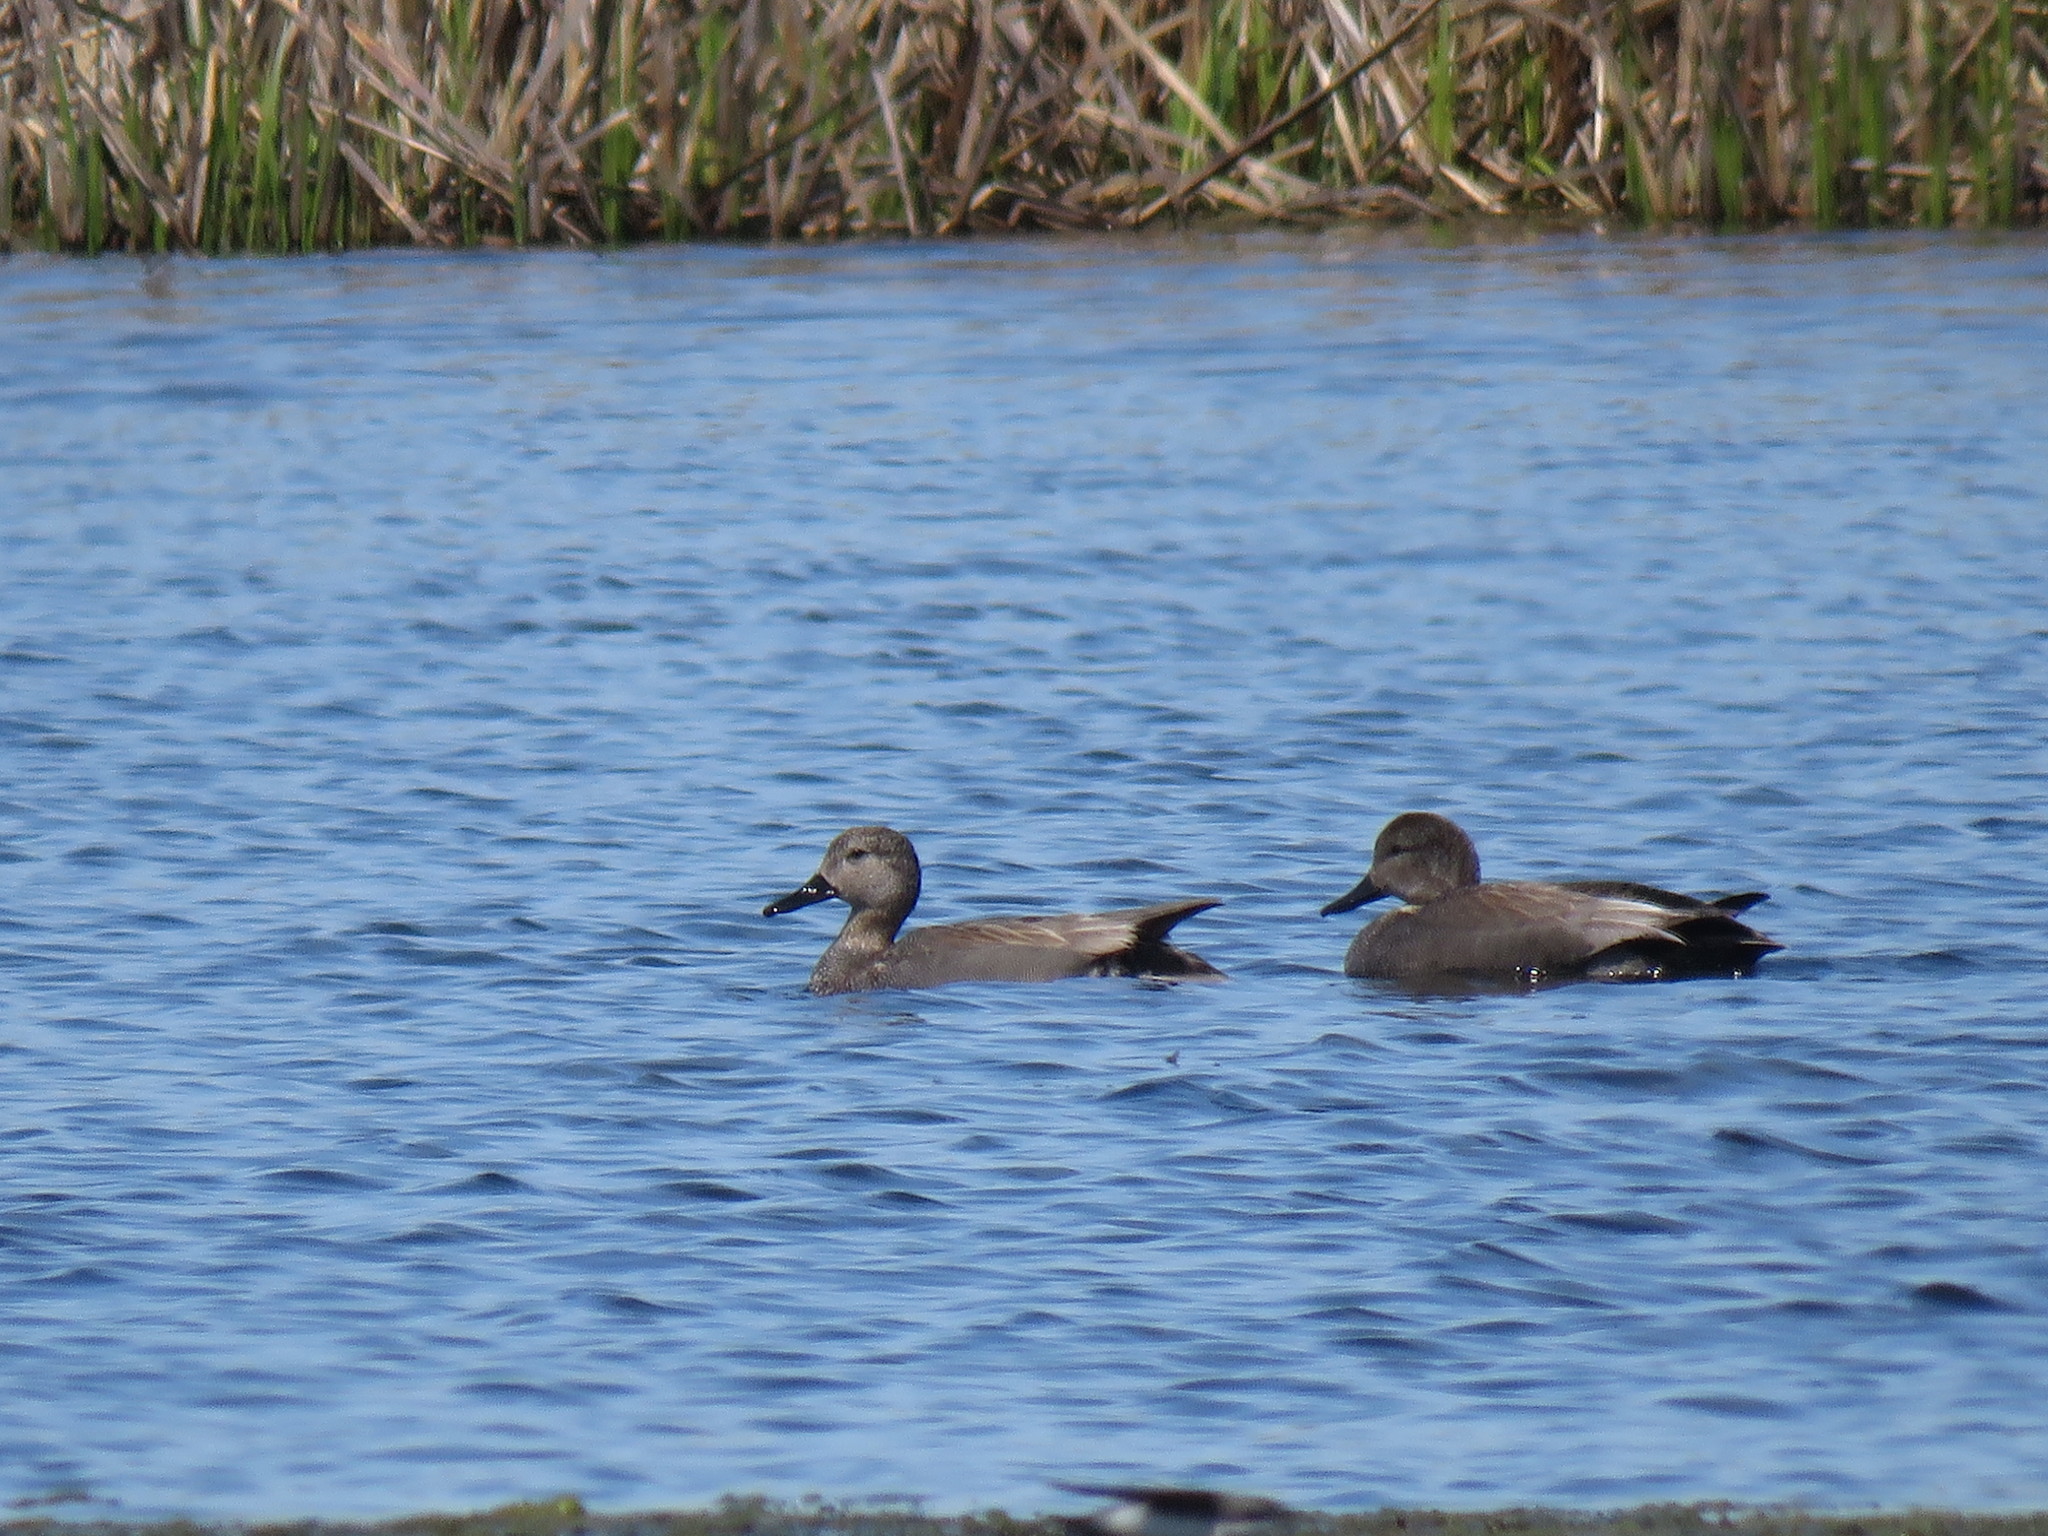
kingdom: Animalia
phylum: Chordata
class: Aves
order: Anseriformes
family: Anatidae
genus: Mareca
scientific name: Mareca strepera
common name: Gadwall
